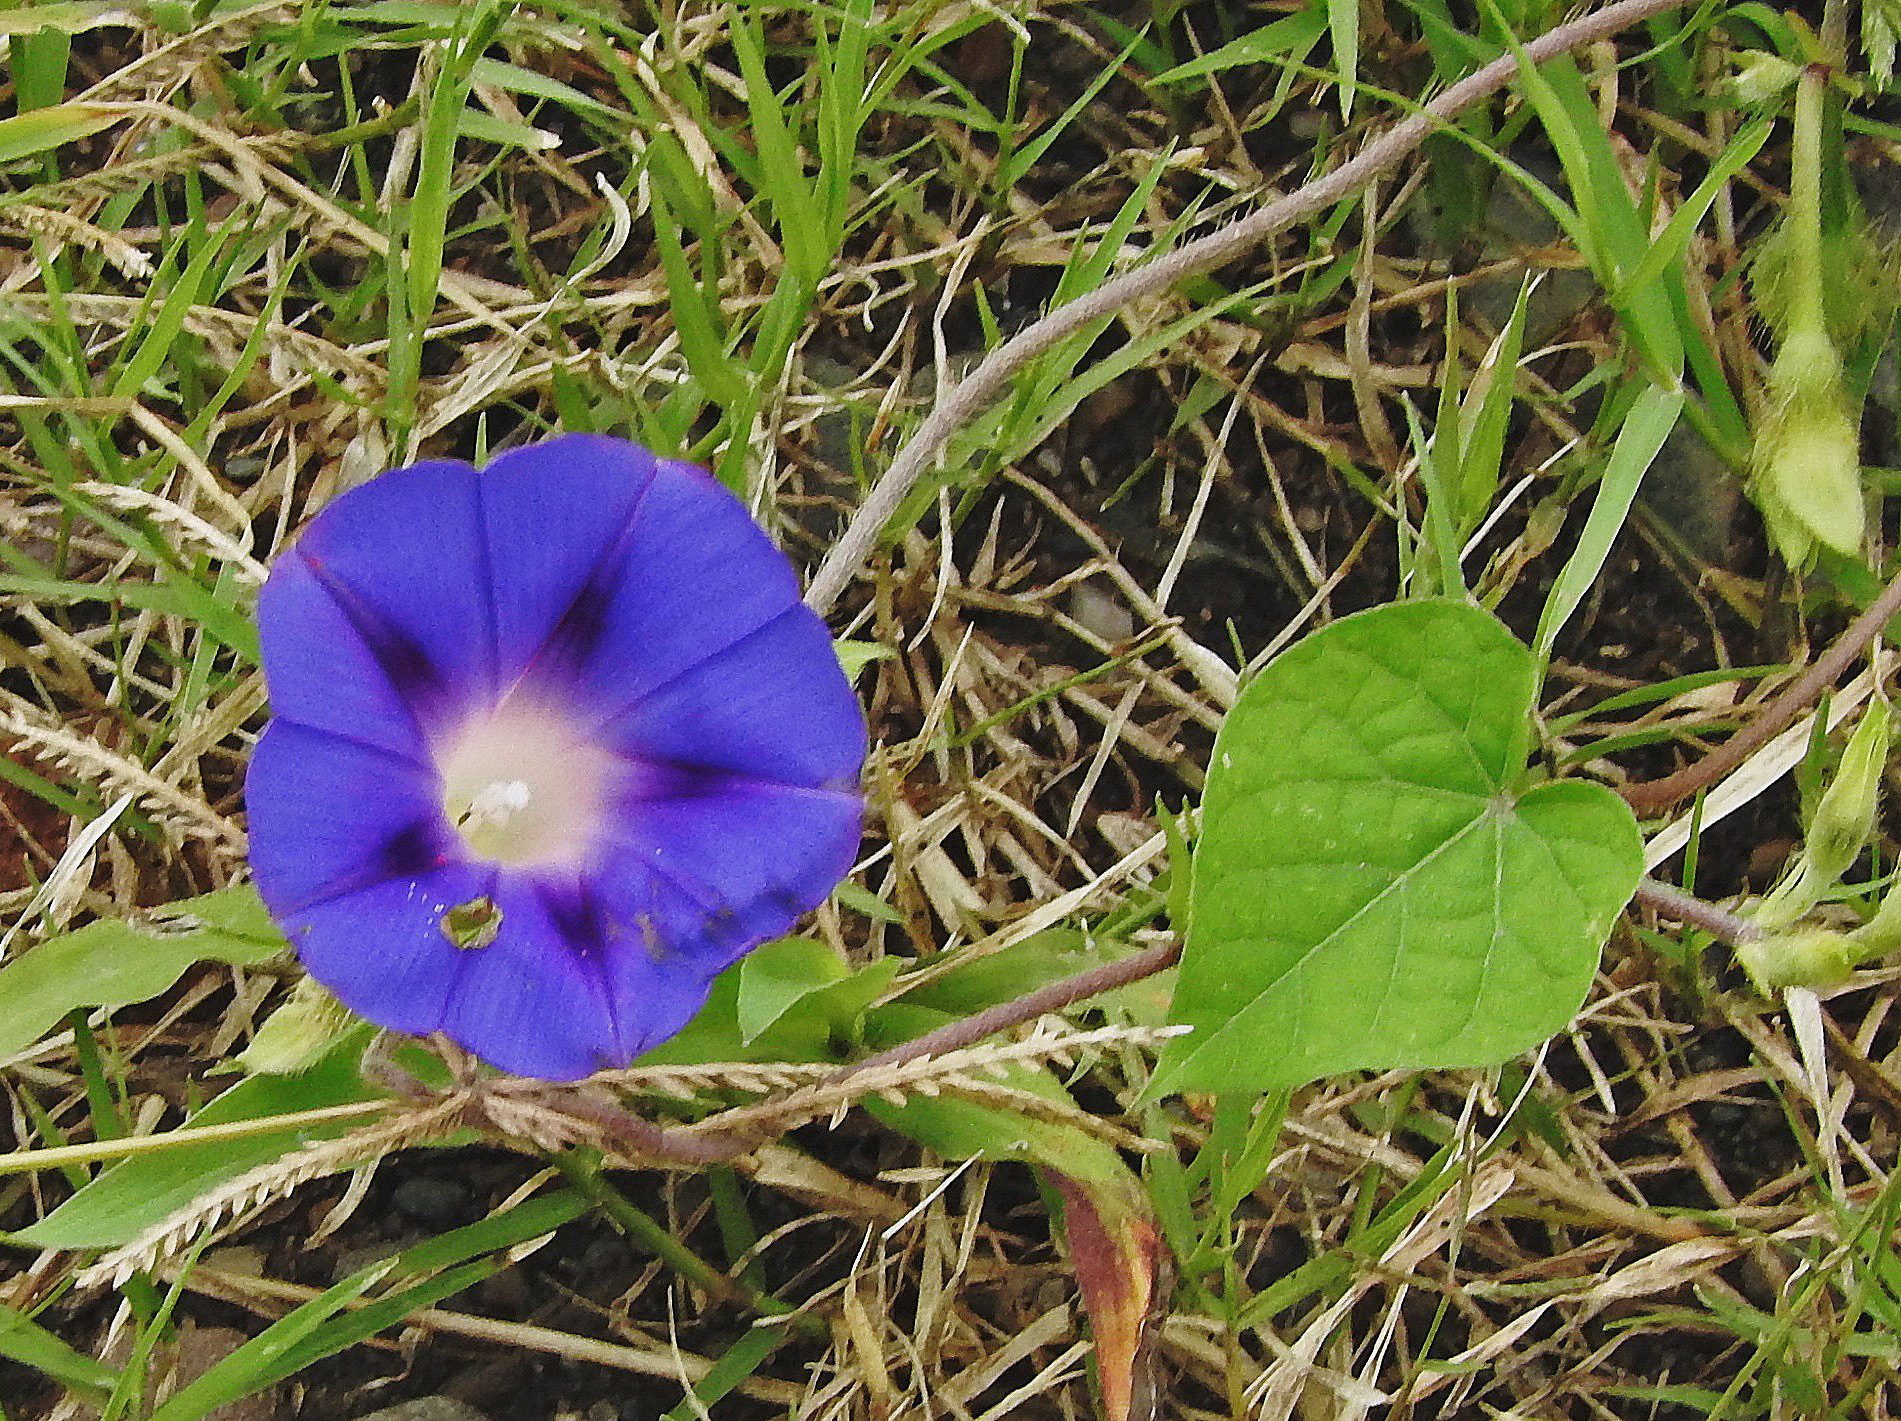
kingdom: Plantae
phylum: Tracheophyta
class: Magnoliopsida
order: Solanales
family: Convolvulaceae
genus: Ipomoea
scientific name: Ipomoea purpurea
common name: Common morning-glory
